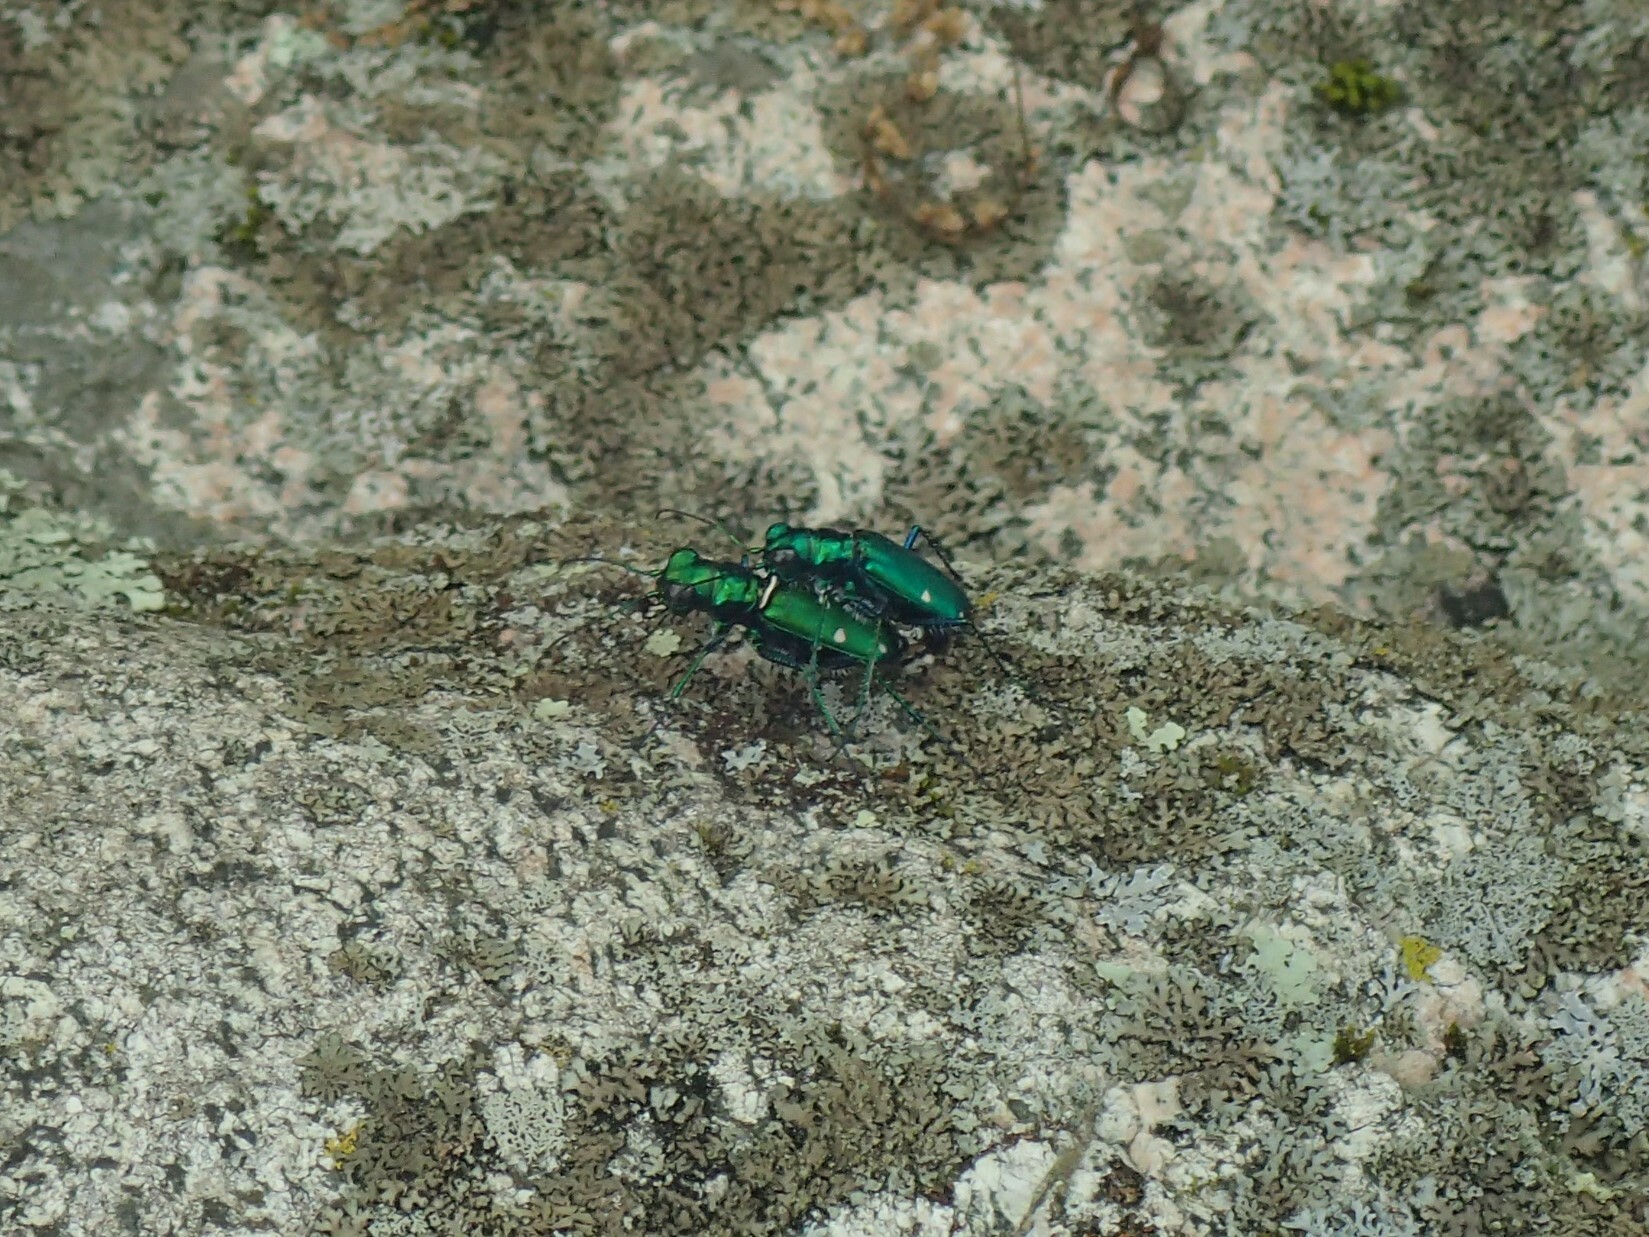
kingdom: Animalia
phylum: Arthropoda
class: Insecta
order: Coleoptera
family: Carabidae
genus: Cicindela
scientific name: Cicindela sexguttata
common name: Six-spotted tiger beetle
